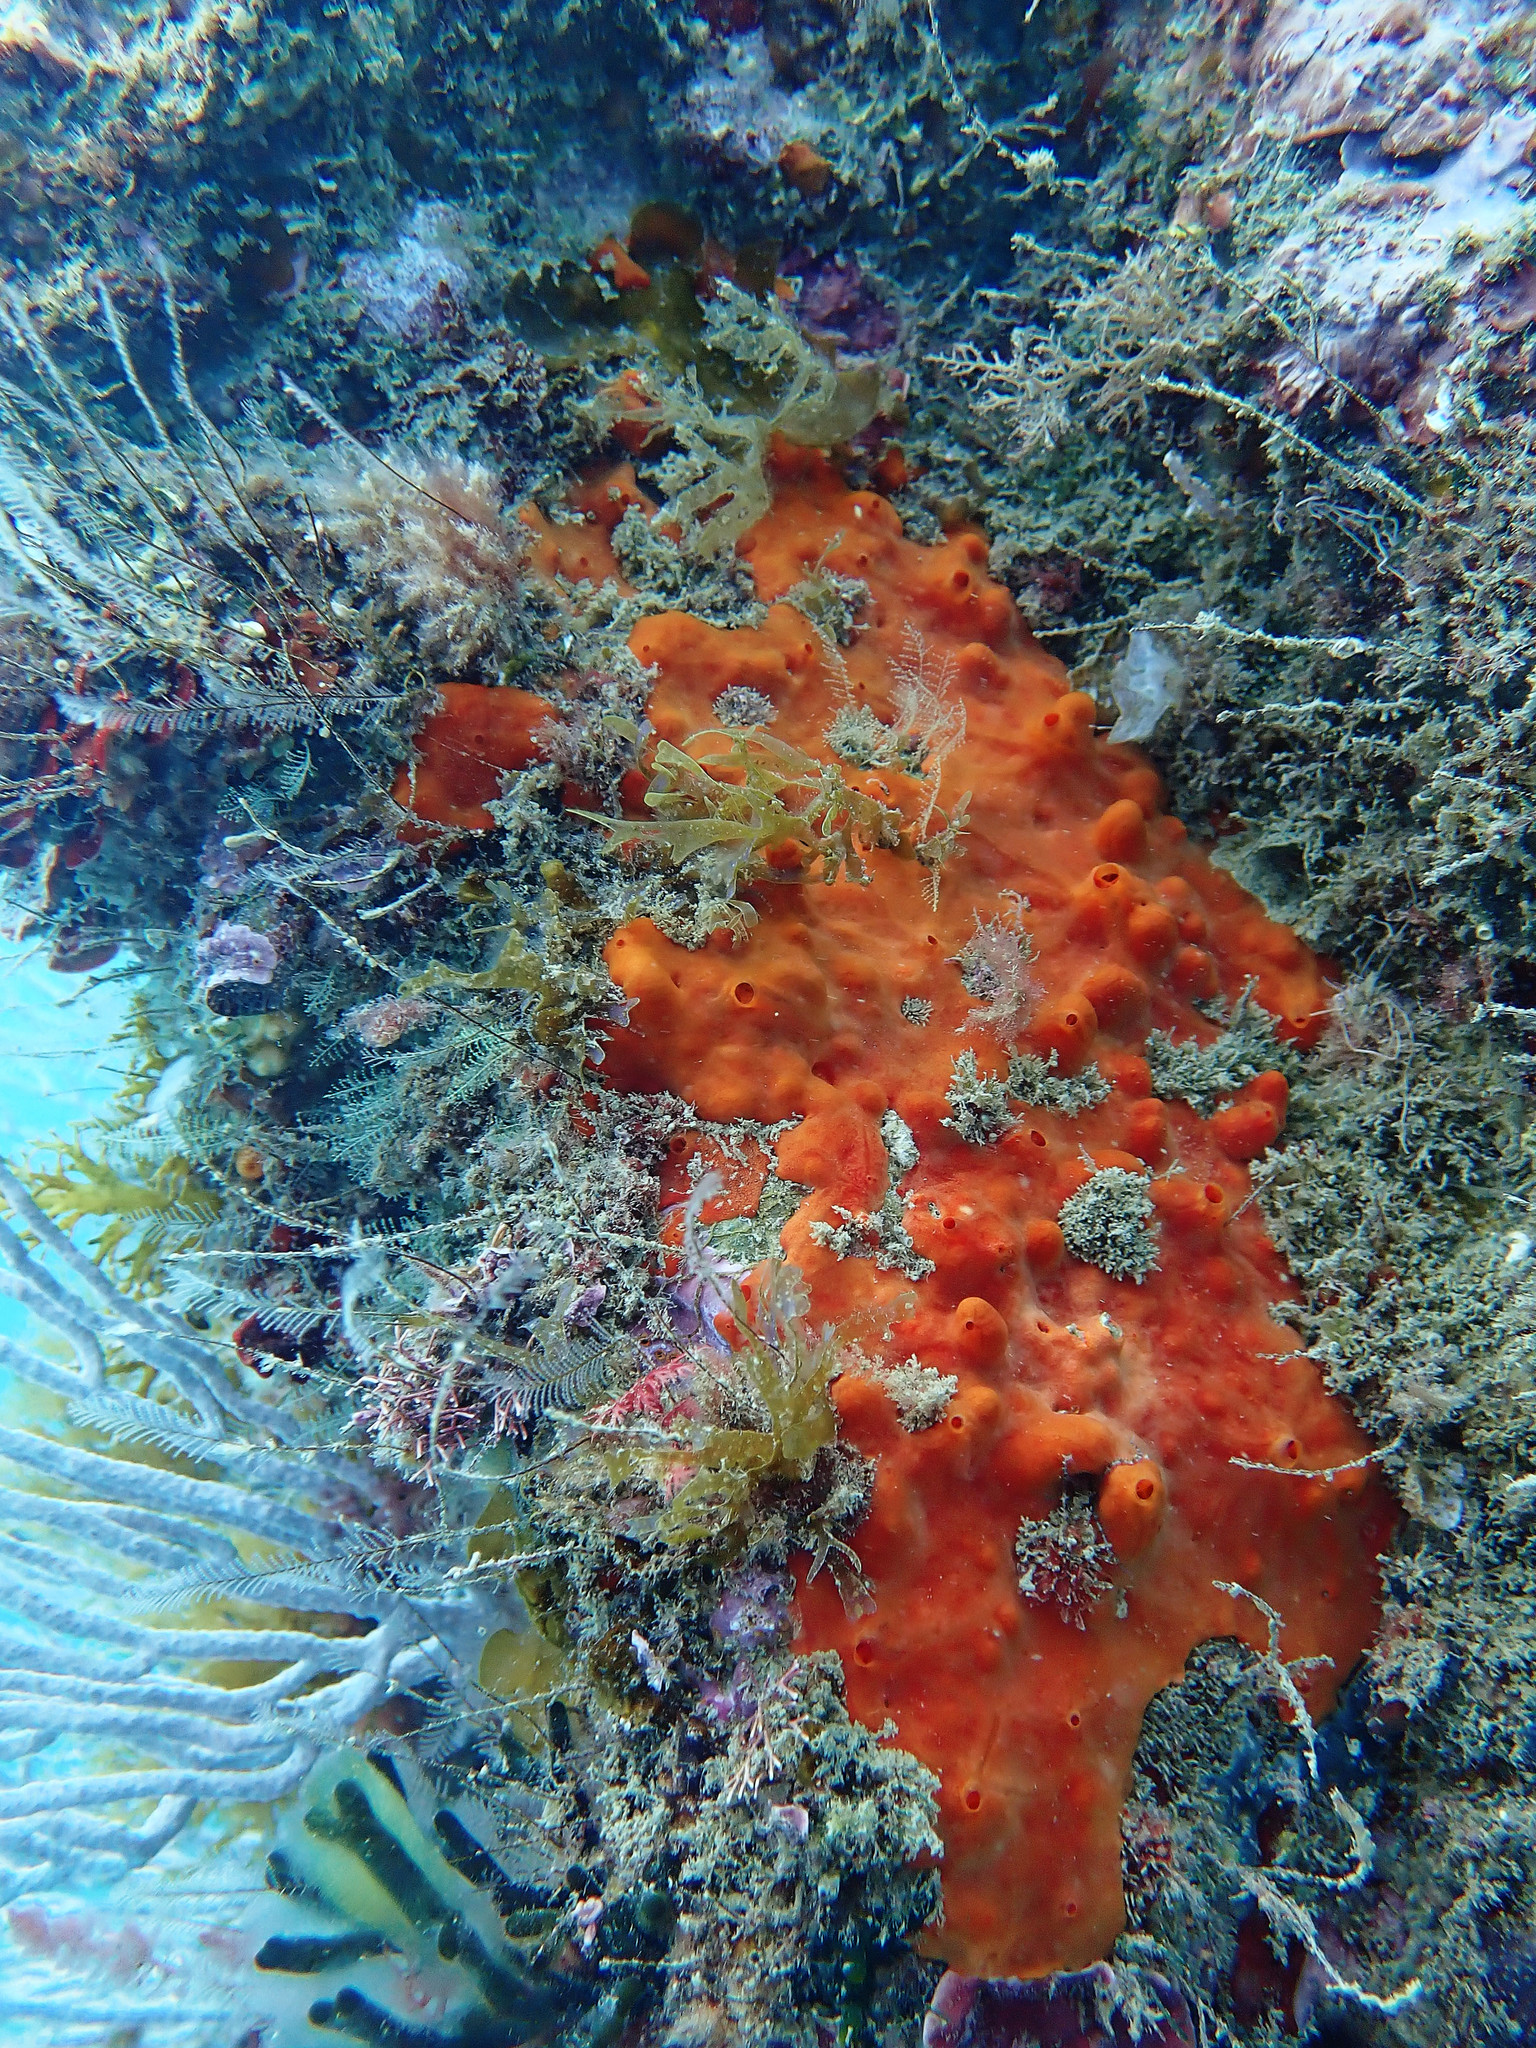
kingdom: Animalia
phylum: Porifera
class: Demospongiae
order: Poecilosclerida
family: Crambeidae
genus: Crambe
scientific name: Crambe crambe
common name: Orange-red encrusting sponge
